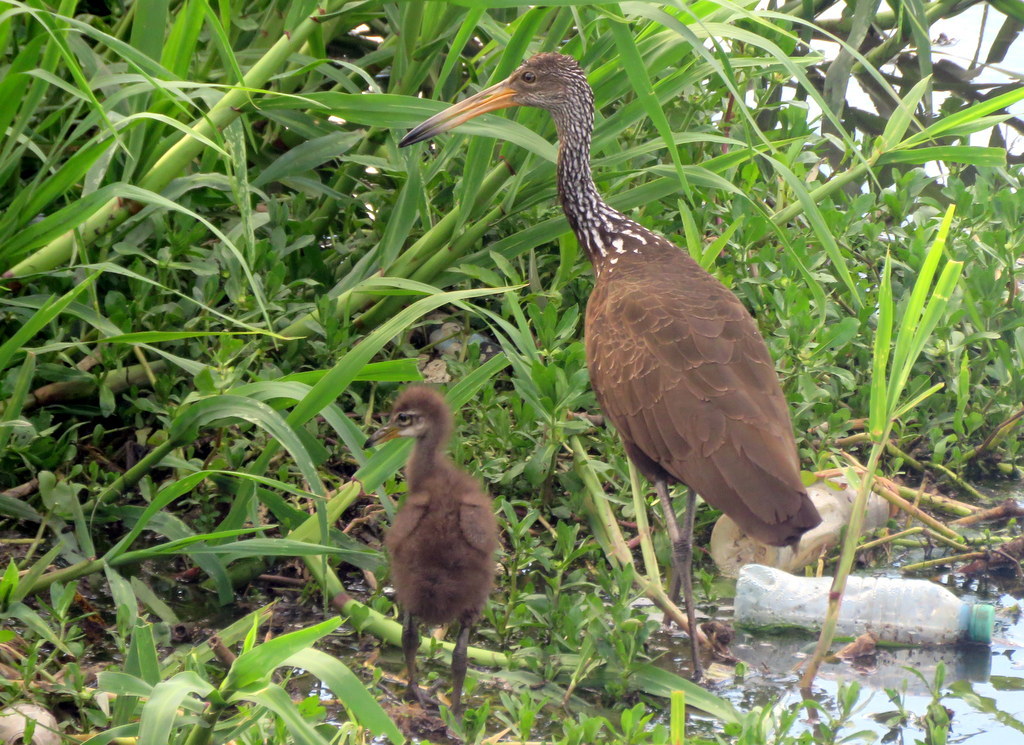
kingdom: Animalia
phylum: Chordata
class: Aves
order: Gruiformes
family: Aramidae
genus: Aramus
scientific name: Aramus guarauna
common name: Limpkin
